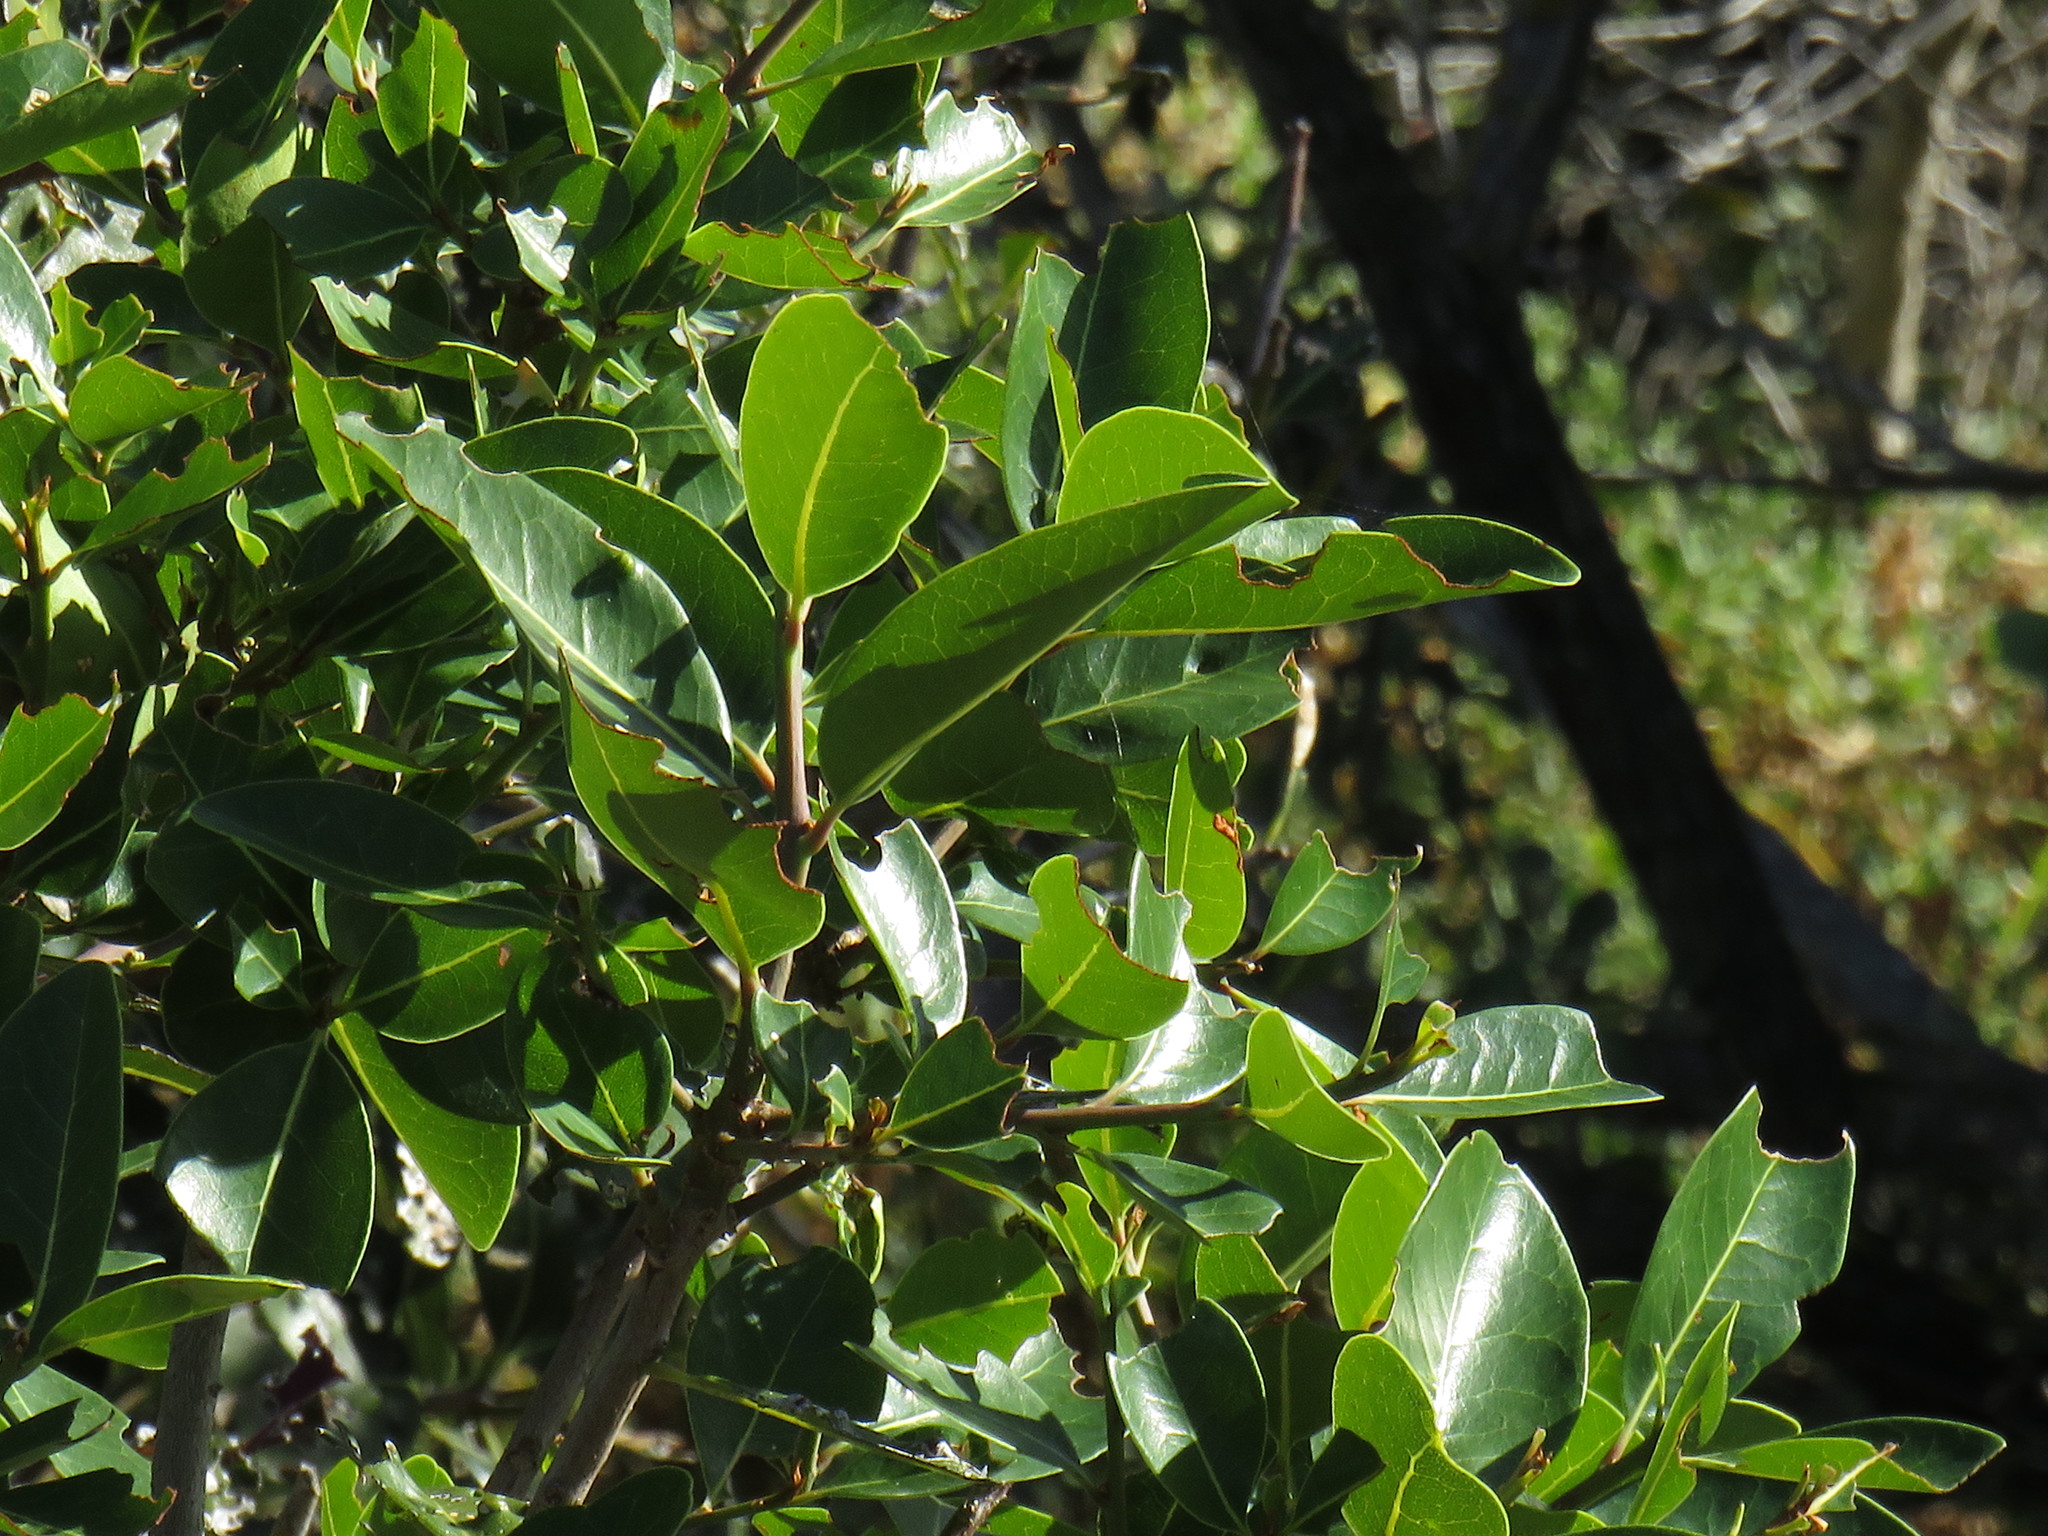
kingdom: Plantae
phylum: Tracheophyta
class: Magnoliopsida
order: Ericales
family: Sapotaceae
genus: Sideroxylon
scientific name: Sideroxylon inerme
